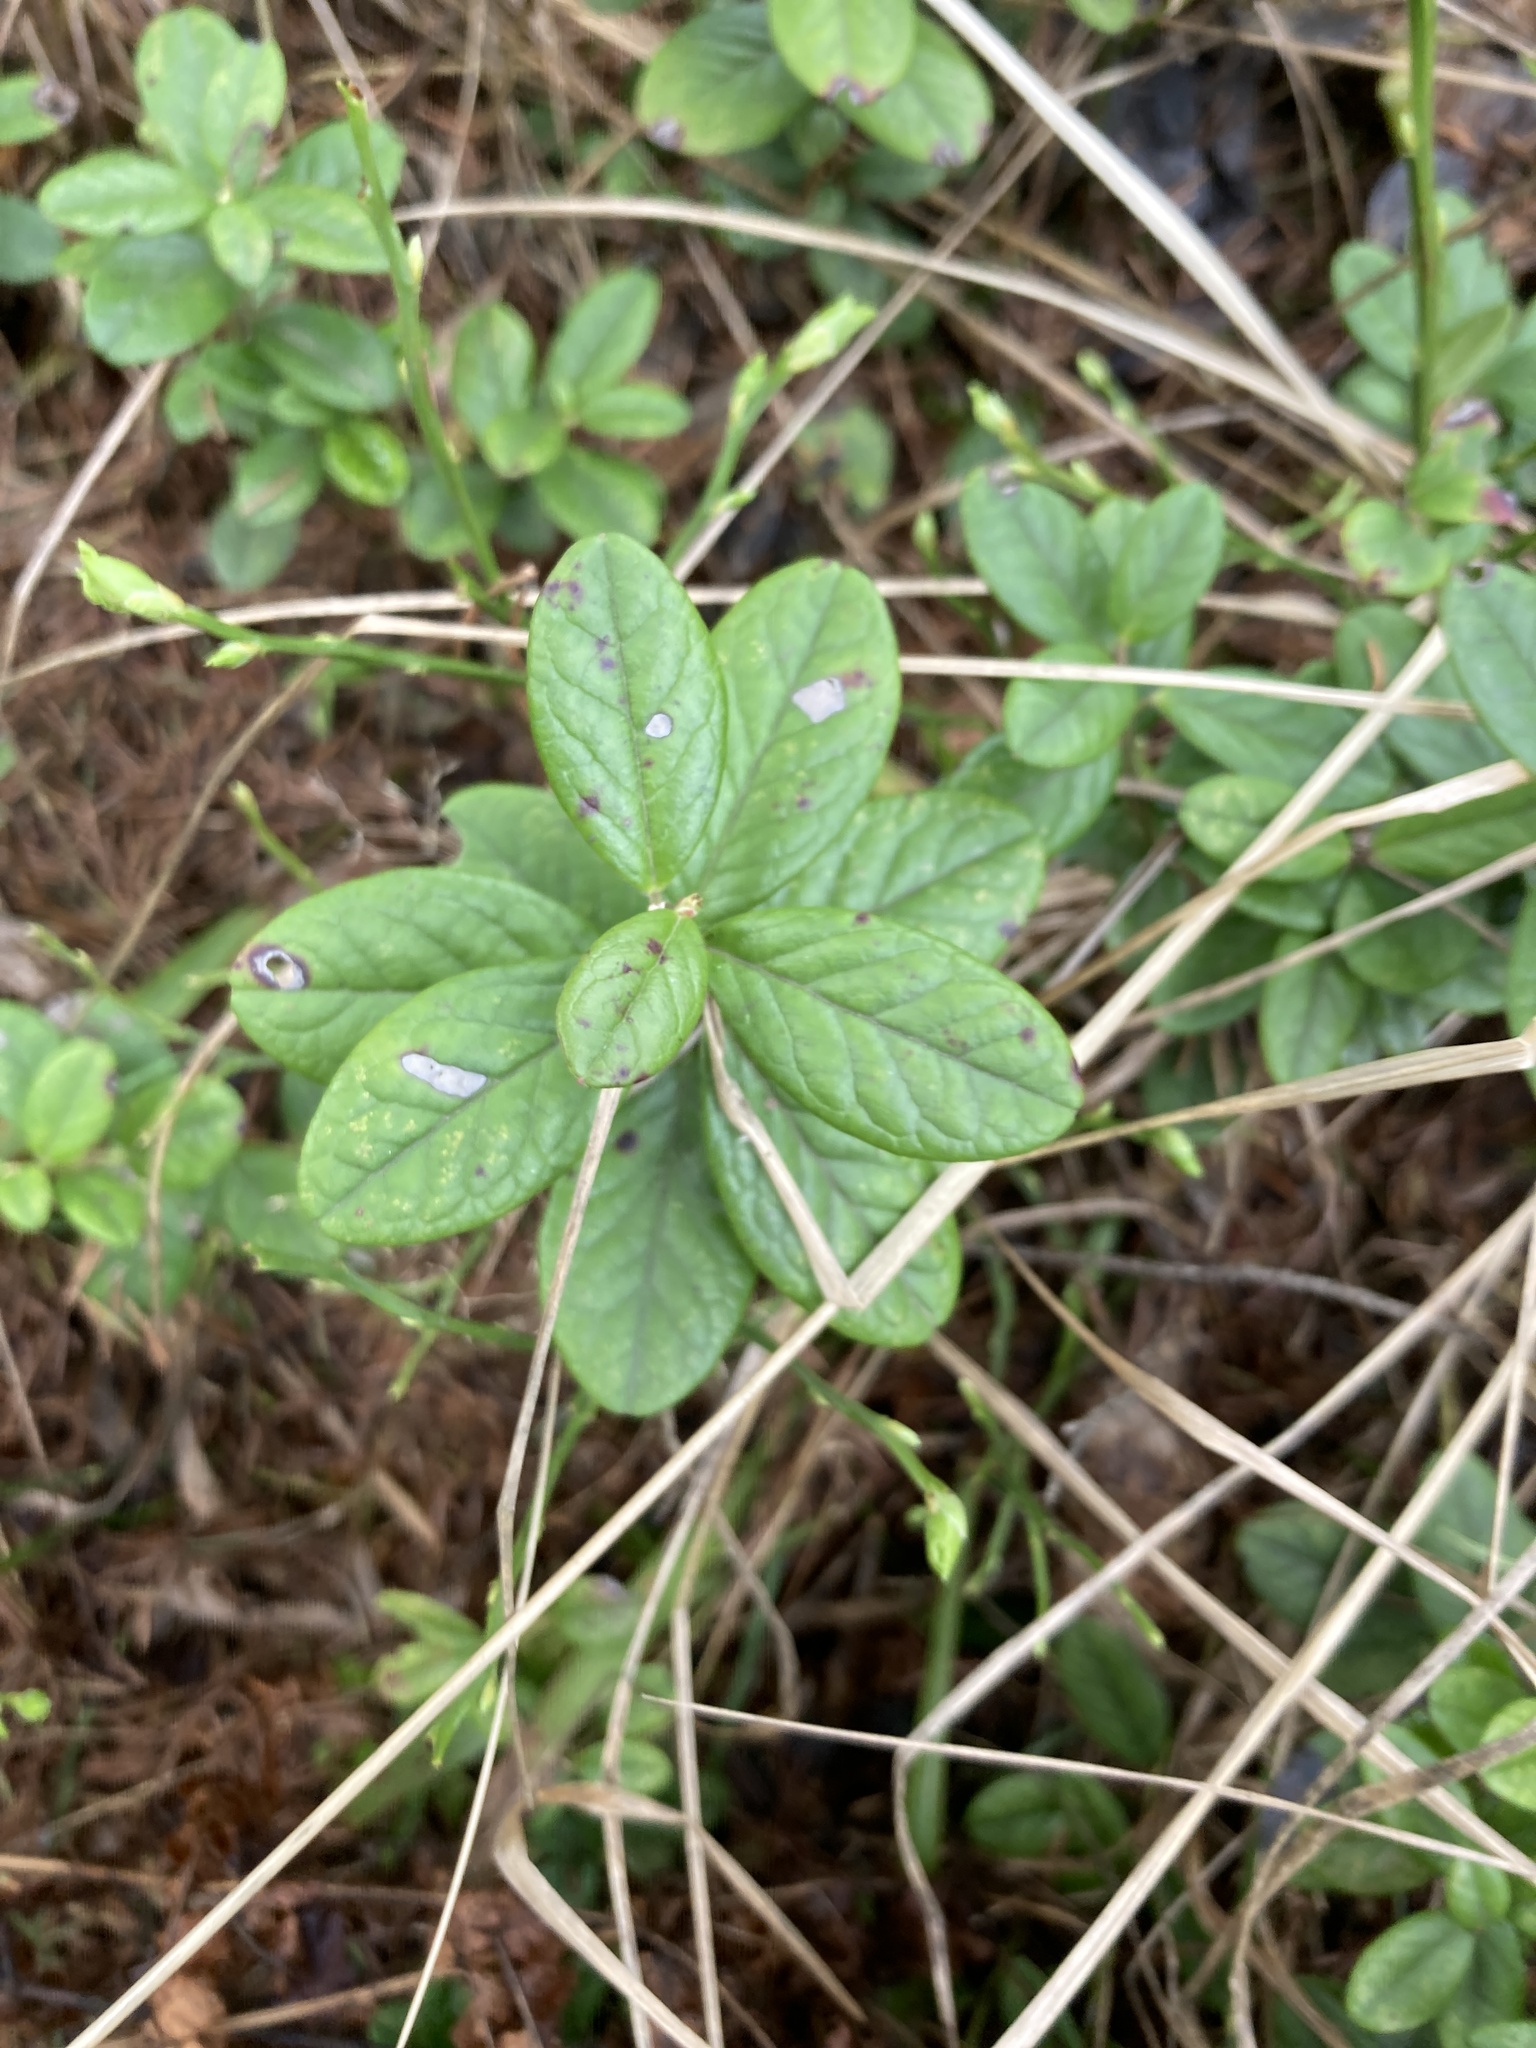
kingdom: Plantae
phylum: Tracheophyta
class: Magnoliopsida
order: Ericales
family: Ericaceae
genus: Vaccinium
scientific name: Vaccinium vitis-idaea
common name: Cowberry
